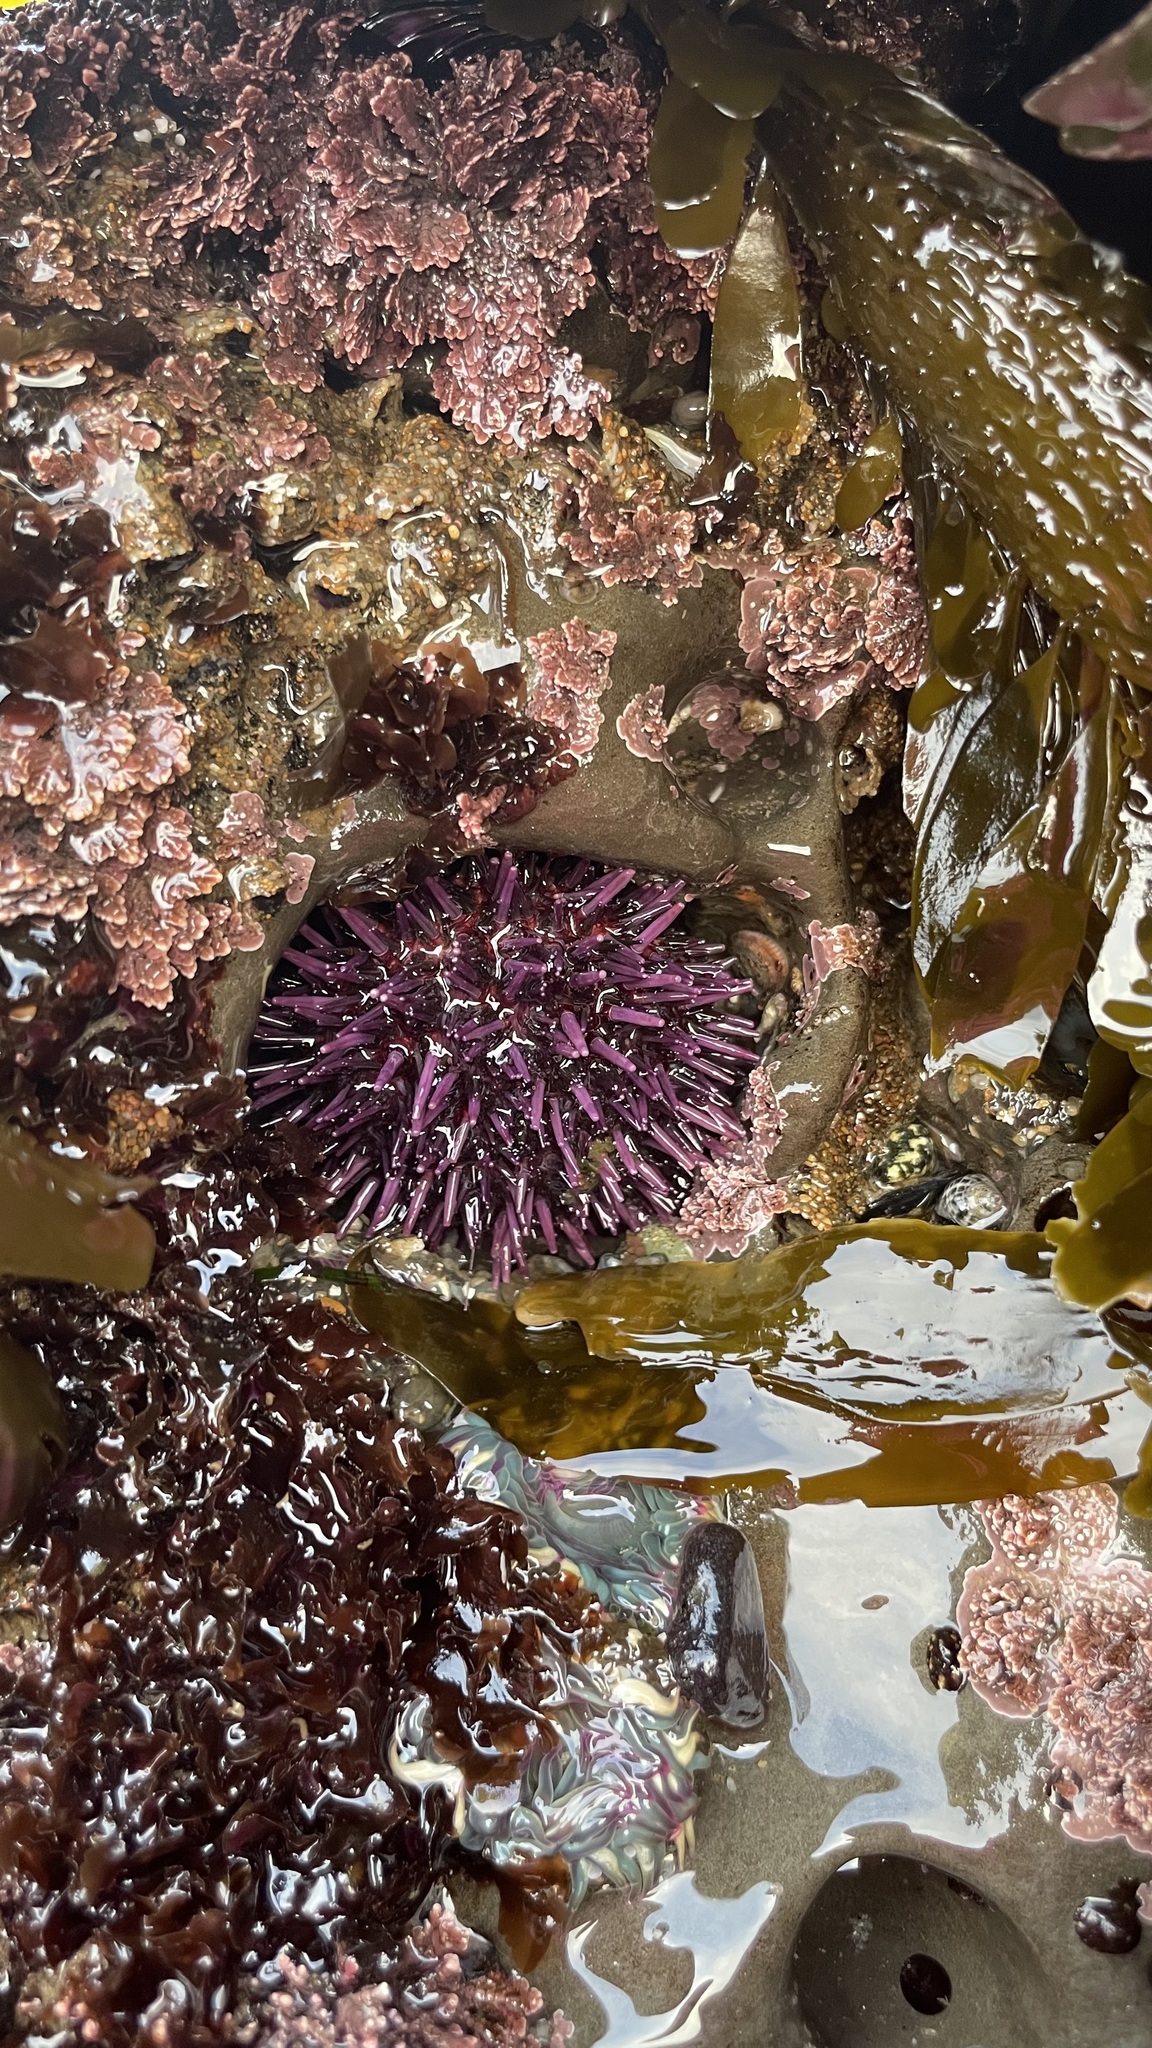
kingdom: Animalia
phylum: Echinodermata
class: Echinoidea
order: Camarodonta
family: Strongylocentrotidae
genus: Strongylocentrotus
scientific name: Strongylocentrotus purpuratus
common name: Purple sea urchin
